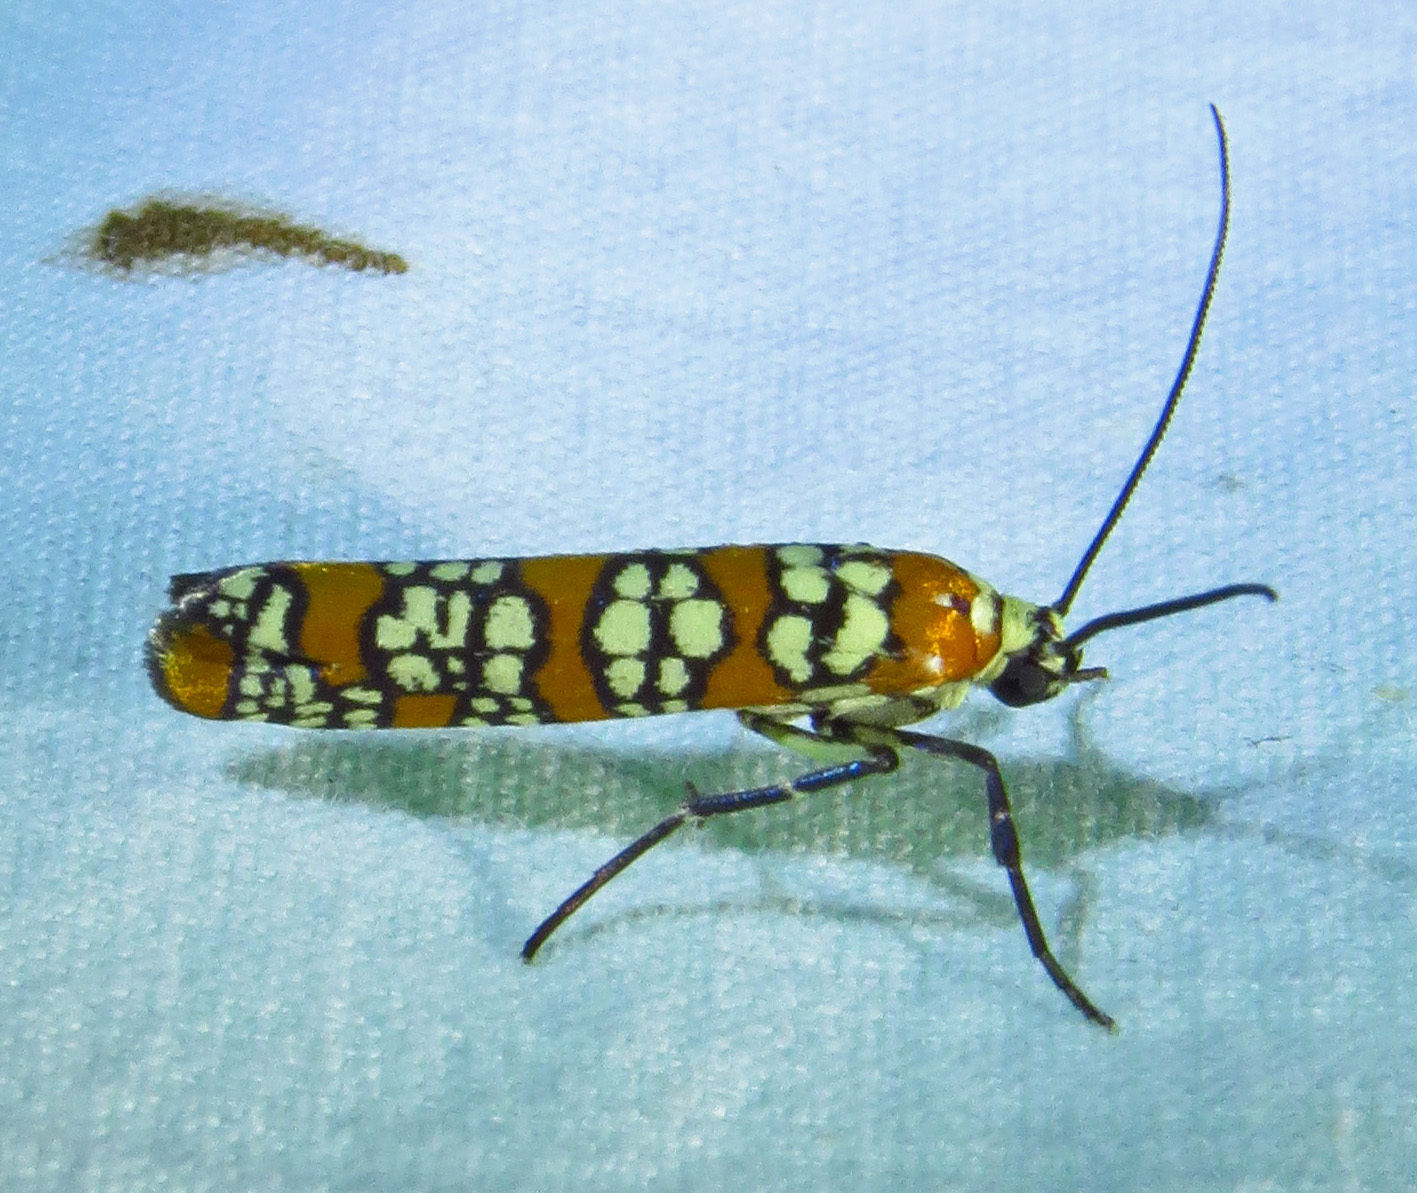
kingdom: Animalia
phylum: Arthropoda
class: Insecta
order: Lepidoptera
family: Attevidae
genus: Atteva
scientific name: Atteva punctella
